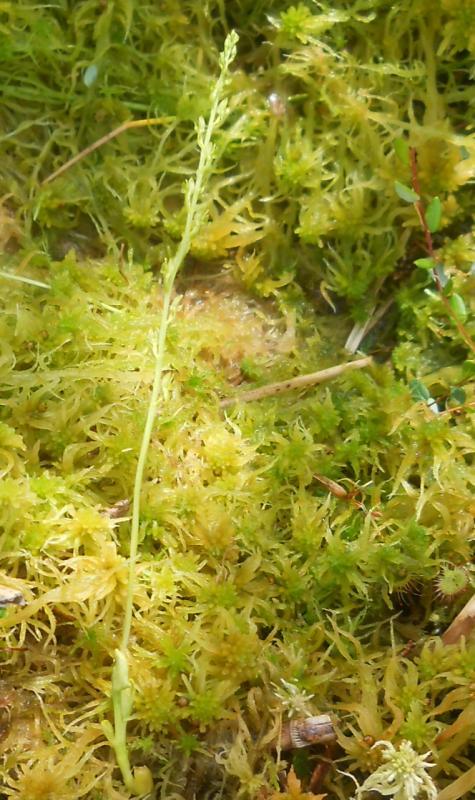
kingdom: Plantae
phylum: Tracheophyta
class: Liliopsida
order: Asparagales
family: Orchidaceae
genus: Hammarbya
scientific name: Hammarbya paludosa
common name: Bog orchid
